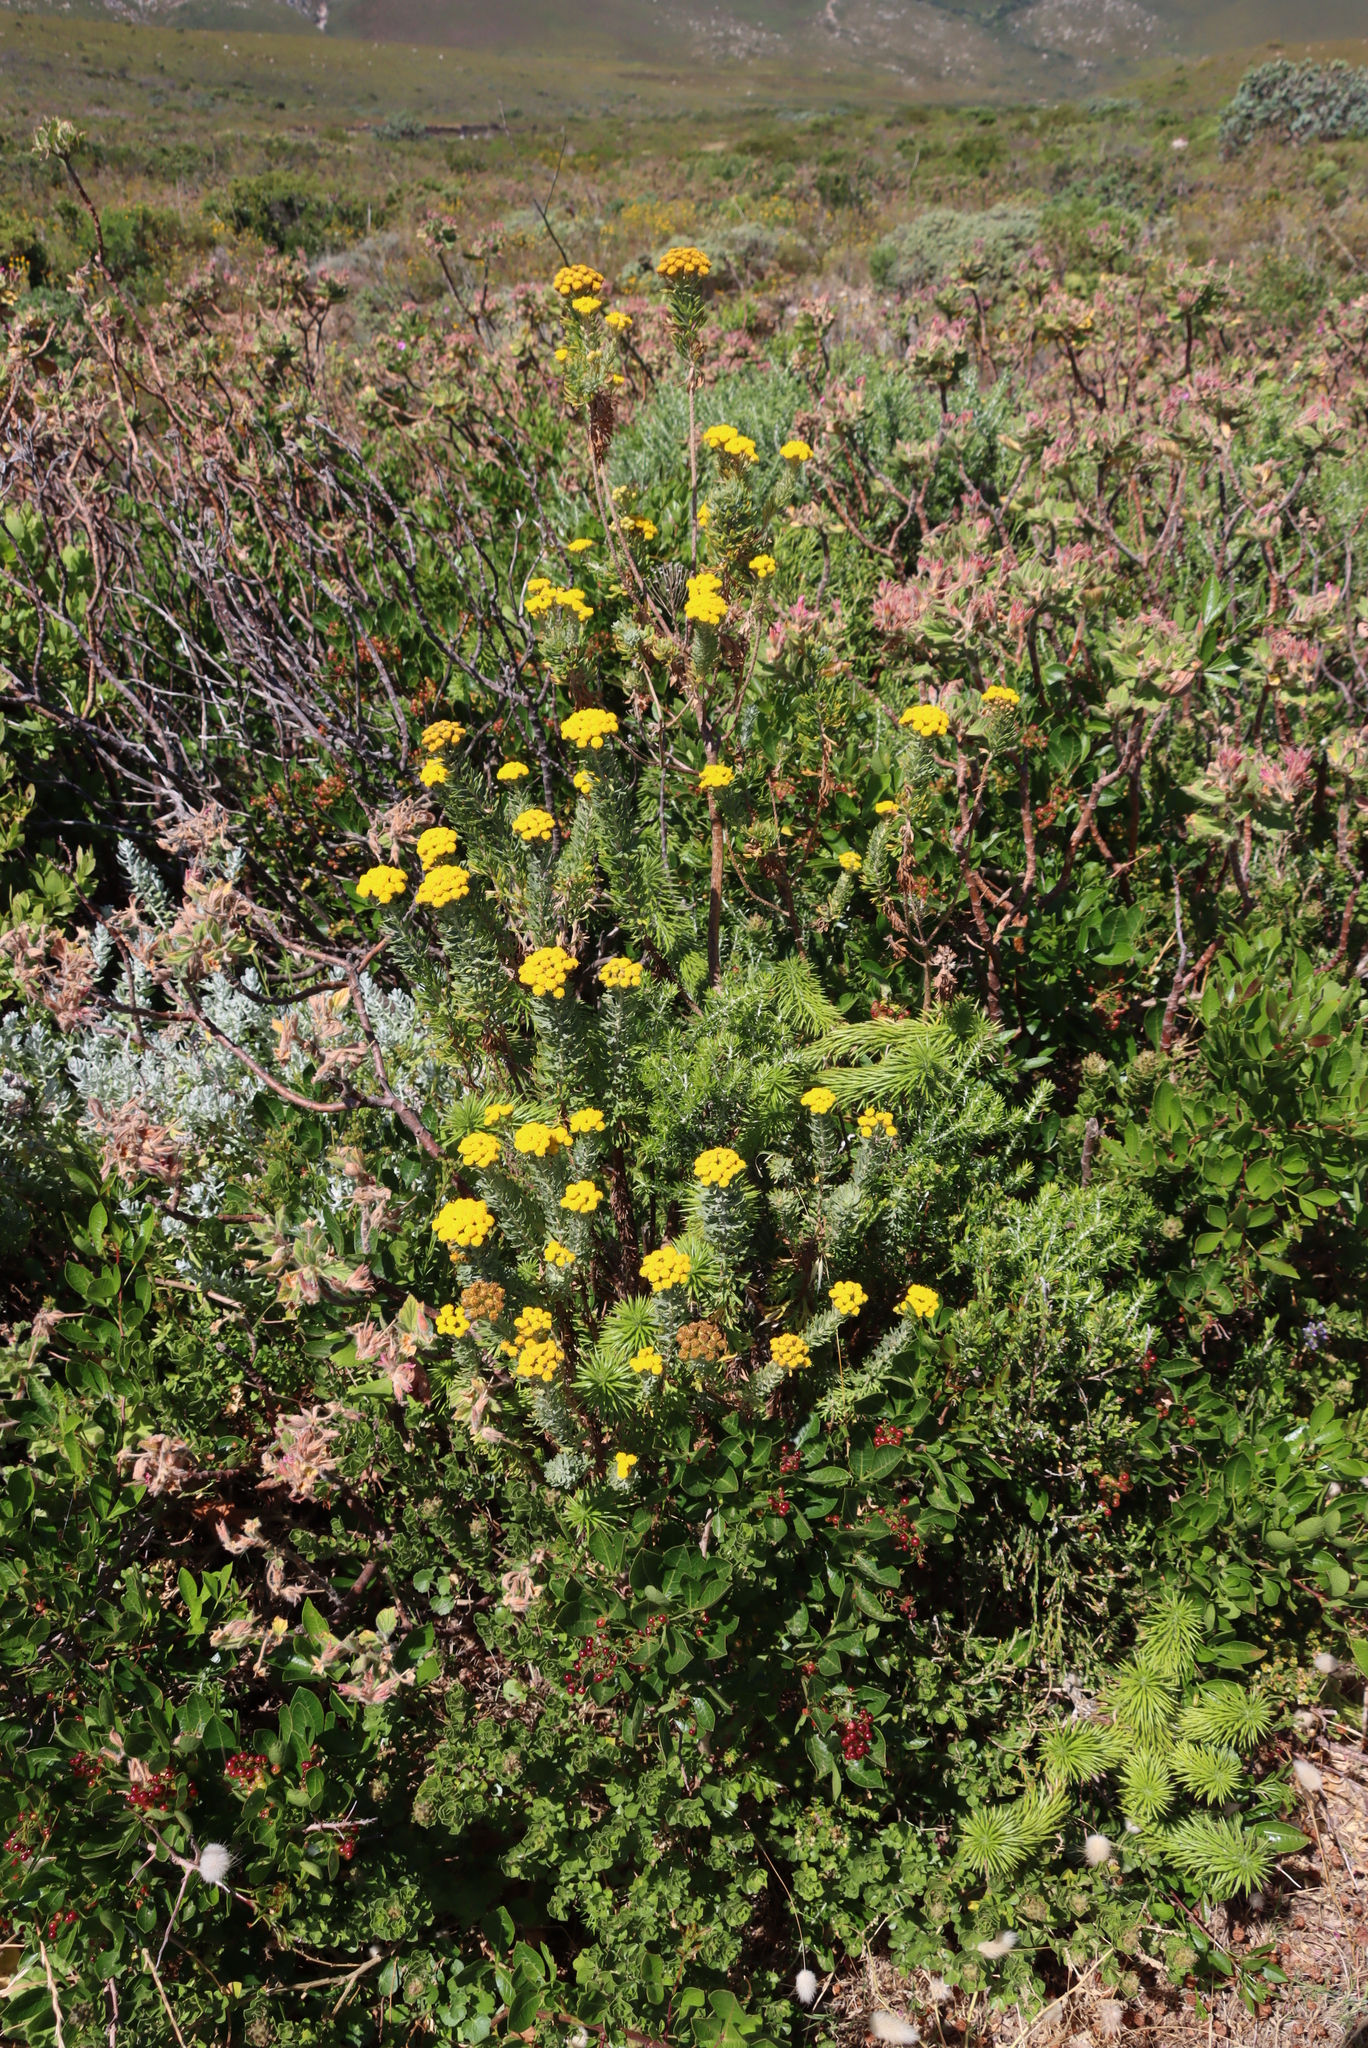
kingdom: Plantae
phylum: Tracheophyta
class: Magnoliopsida
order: Asterales
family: Asteraceae
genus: Athanasia
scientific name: Athanasia trifurcata
